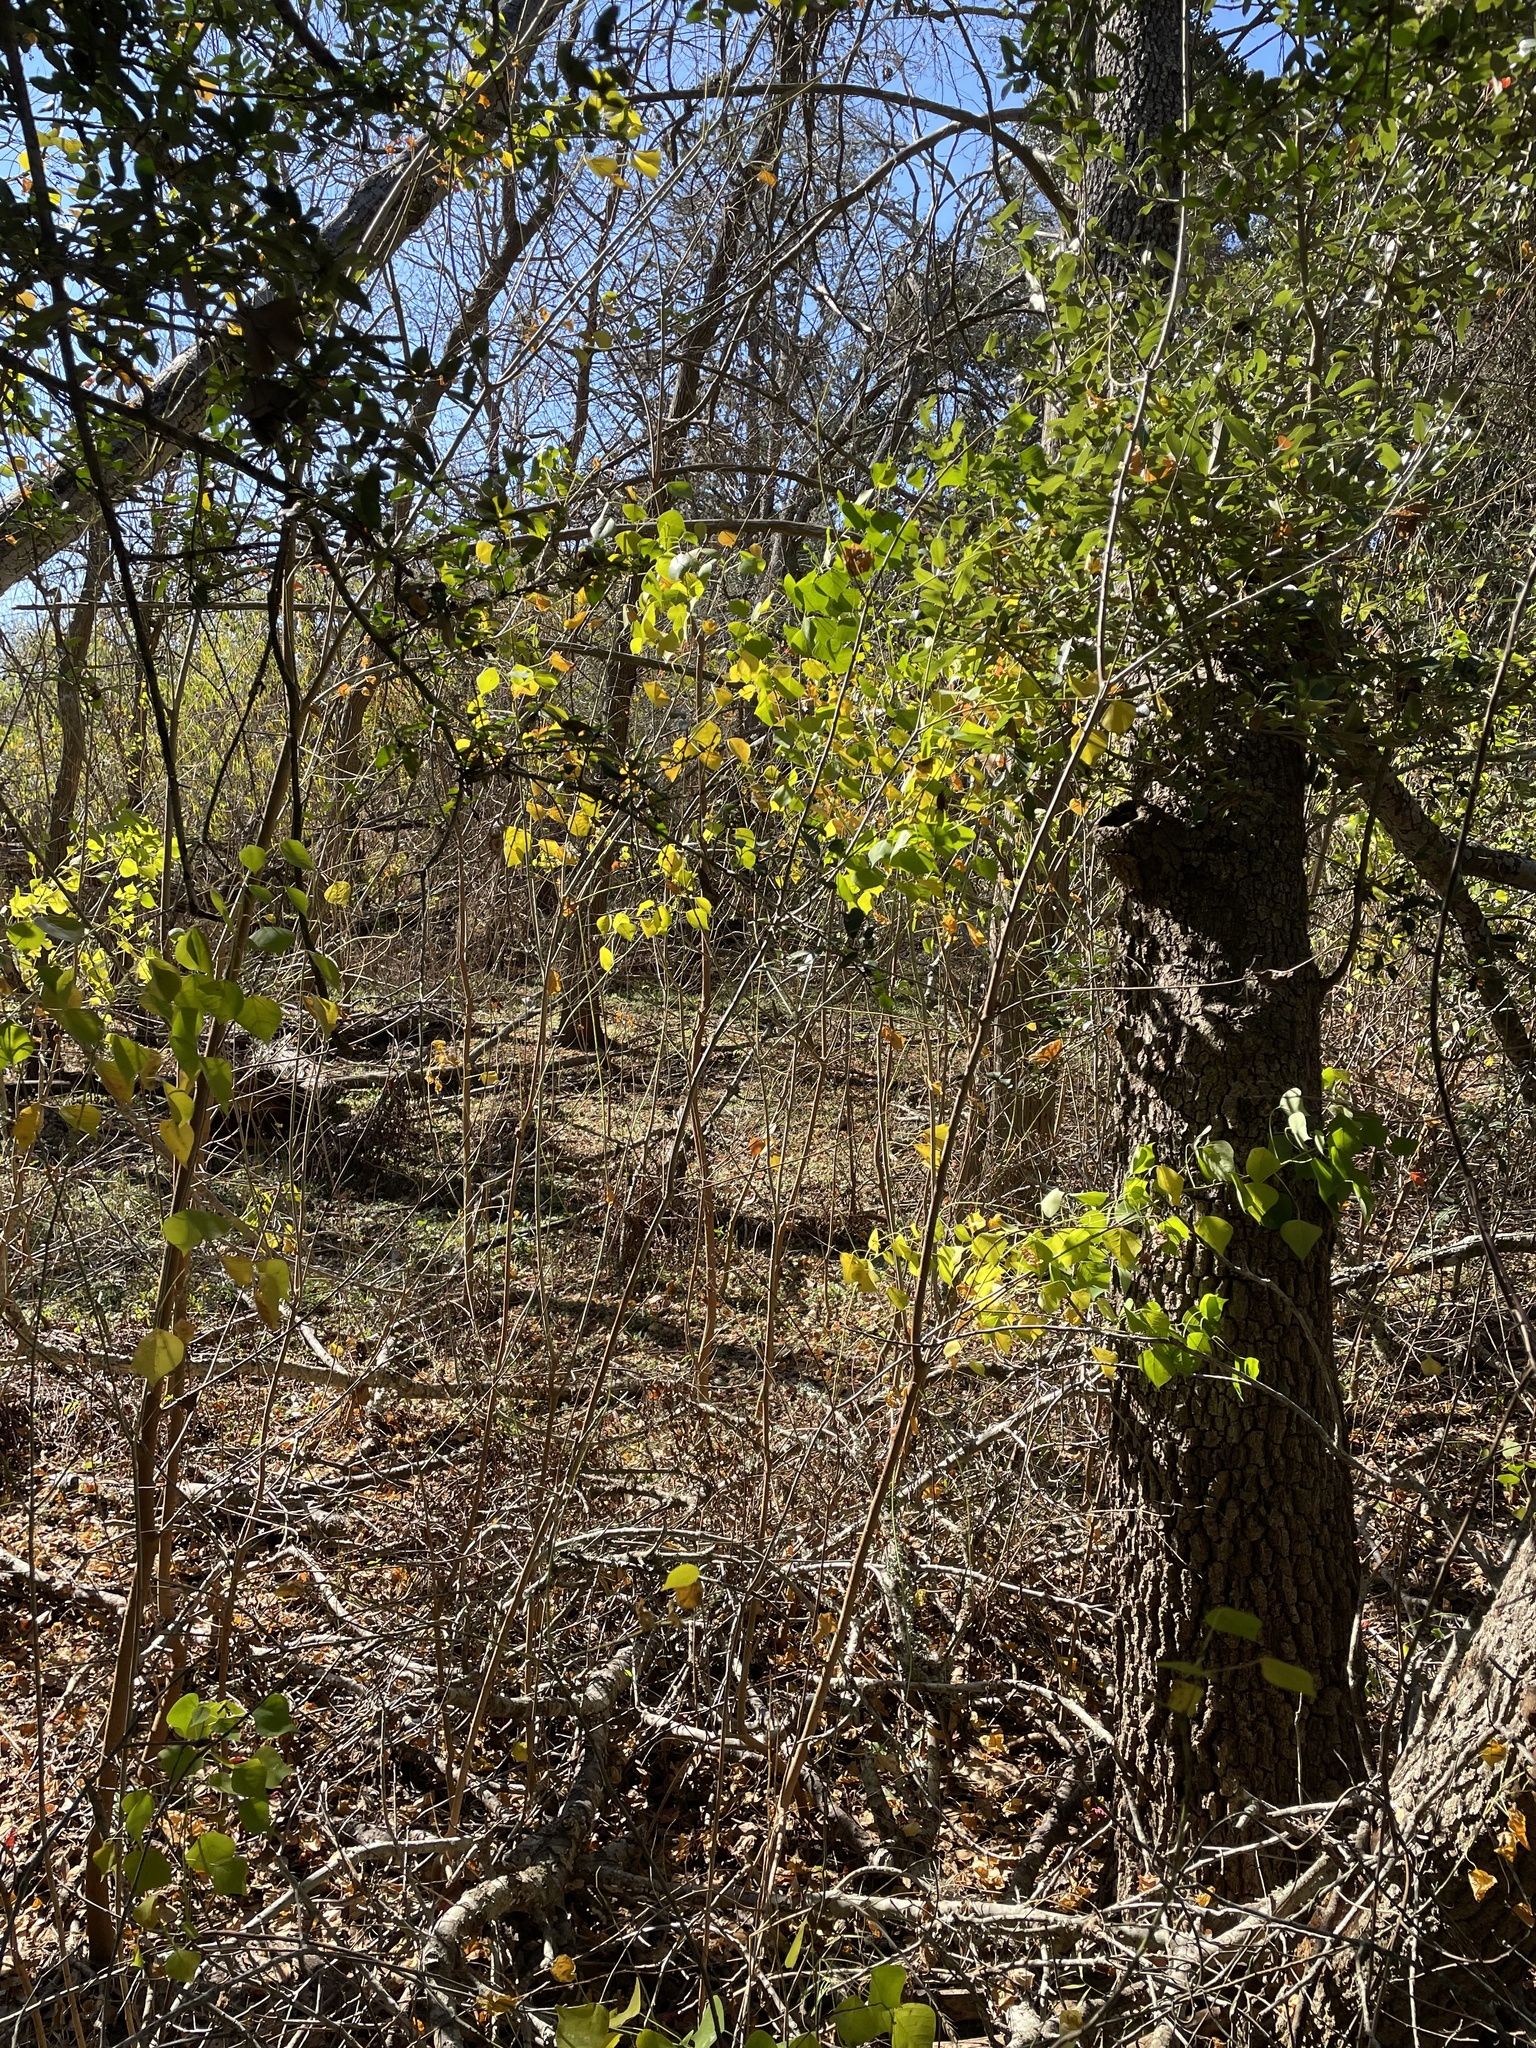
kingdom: Plantae
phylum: Tracheophyta
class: Magnoliopsida
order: Malpighiales
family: Euphorbiaceae
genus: Triadica
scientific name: Triadica sebifera
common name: Chinese tallow
